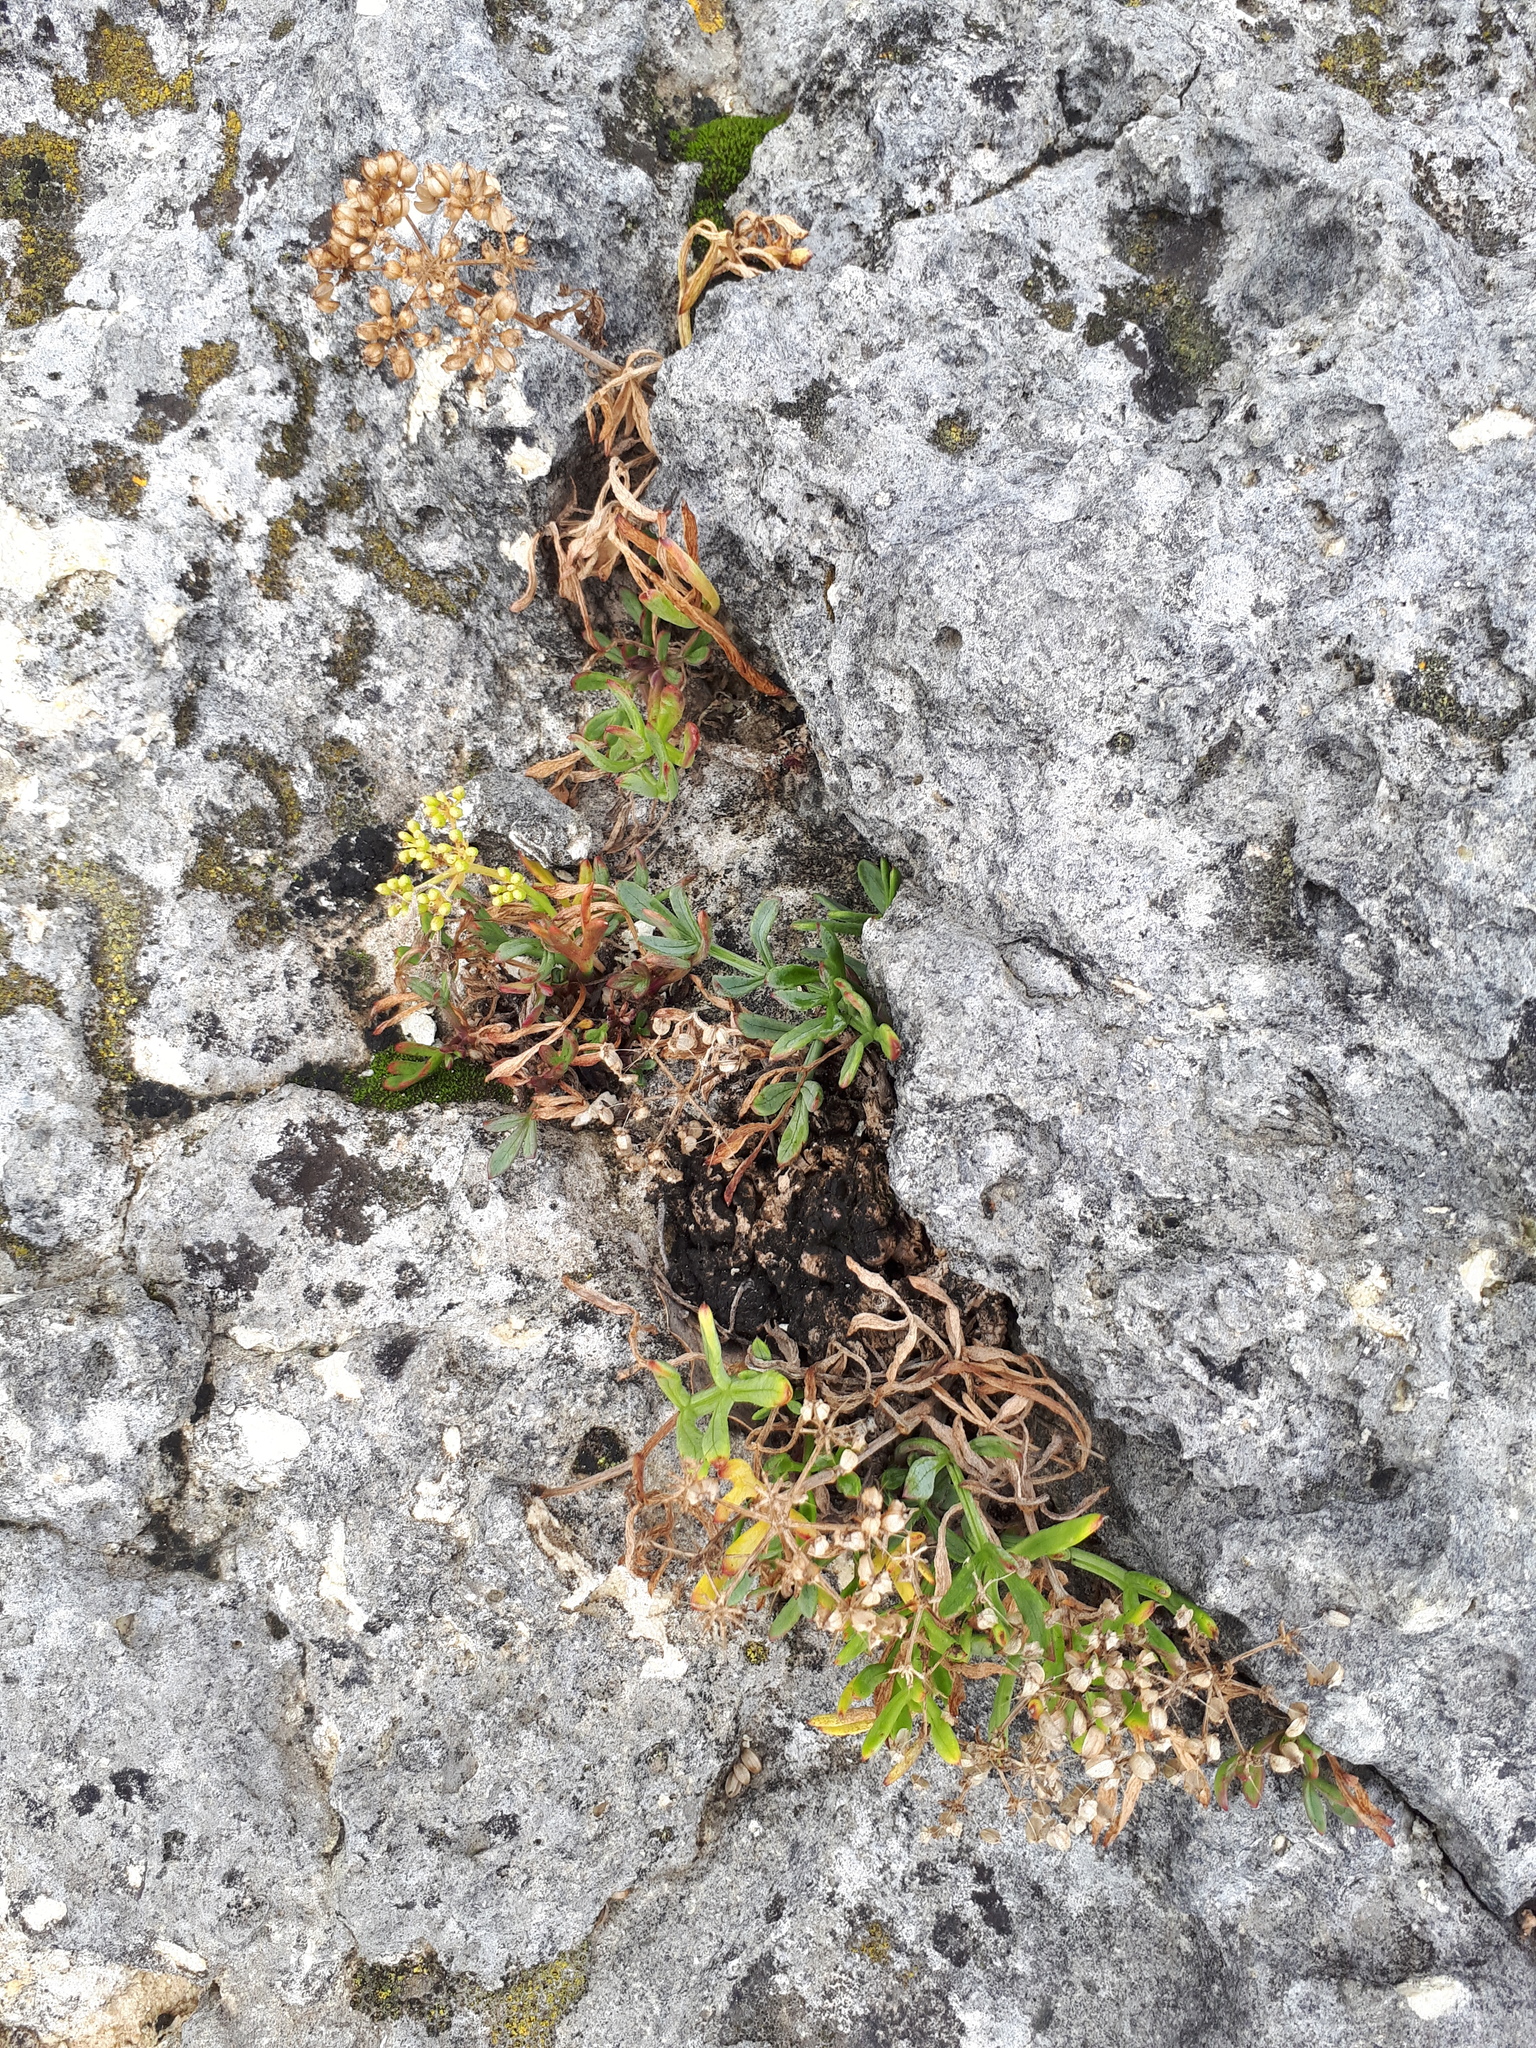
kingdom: Plantae
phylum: Tracheophyta
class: Magnoliopsida
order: Apiales
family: Apiaceae
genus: Crithmum
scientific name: Crithmum maritimum
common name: Rock samphire
